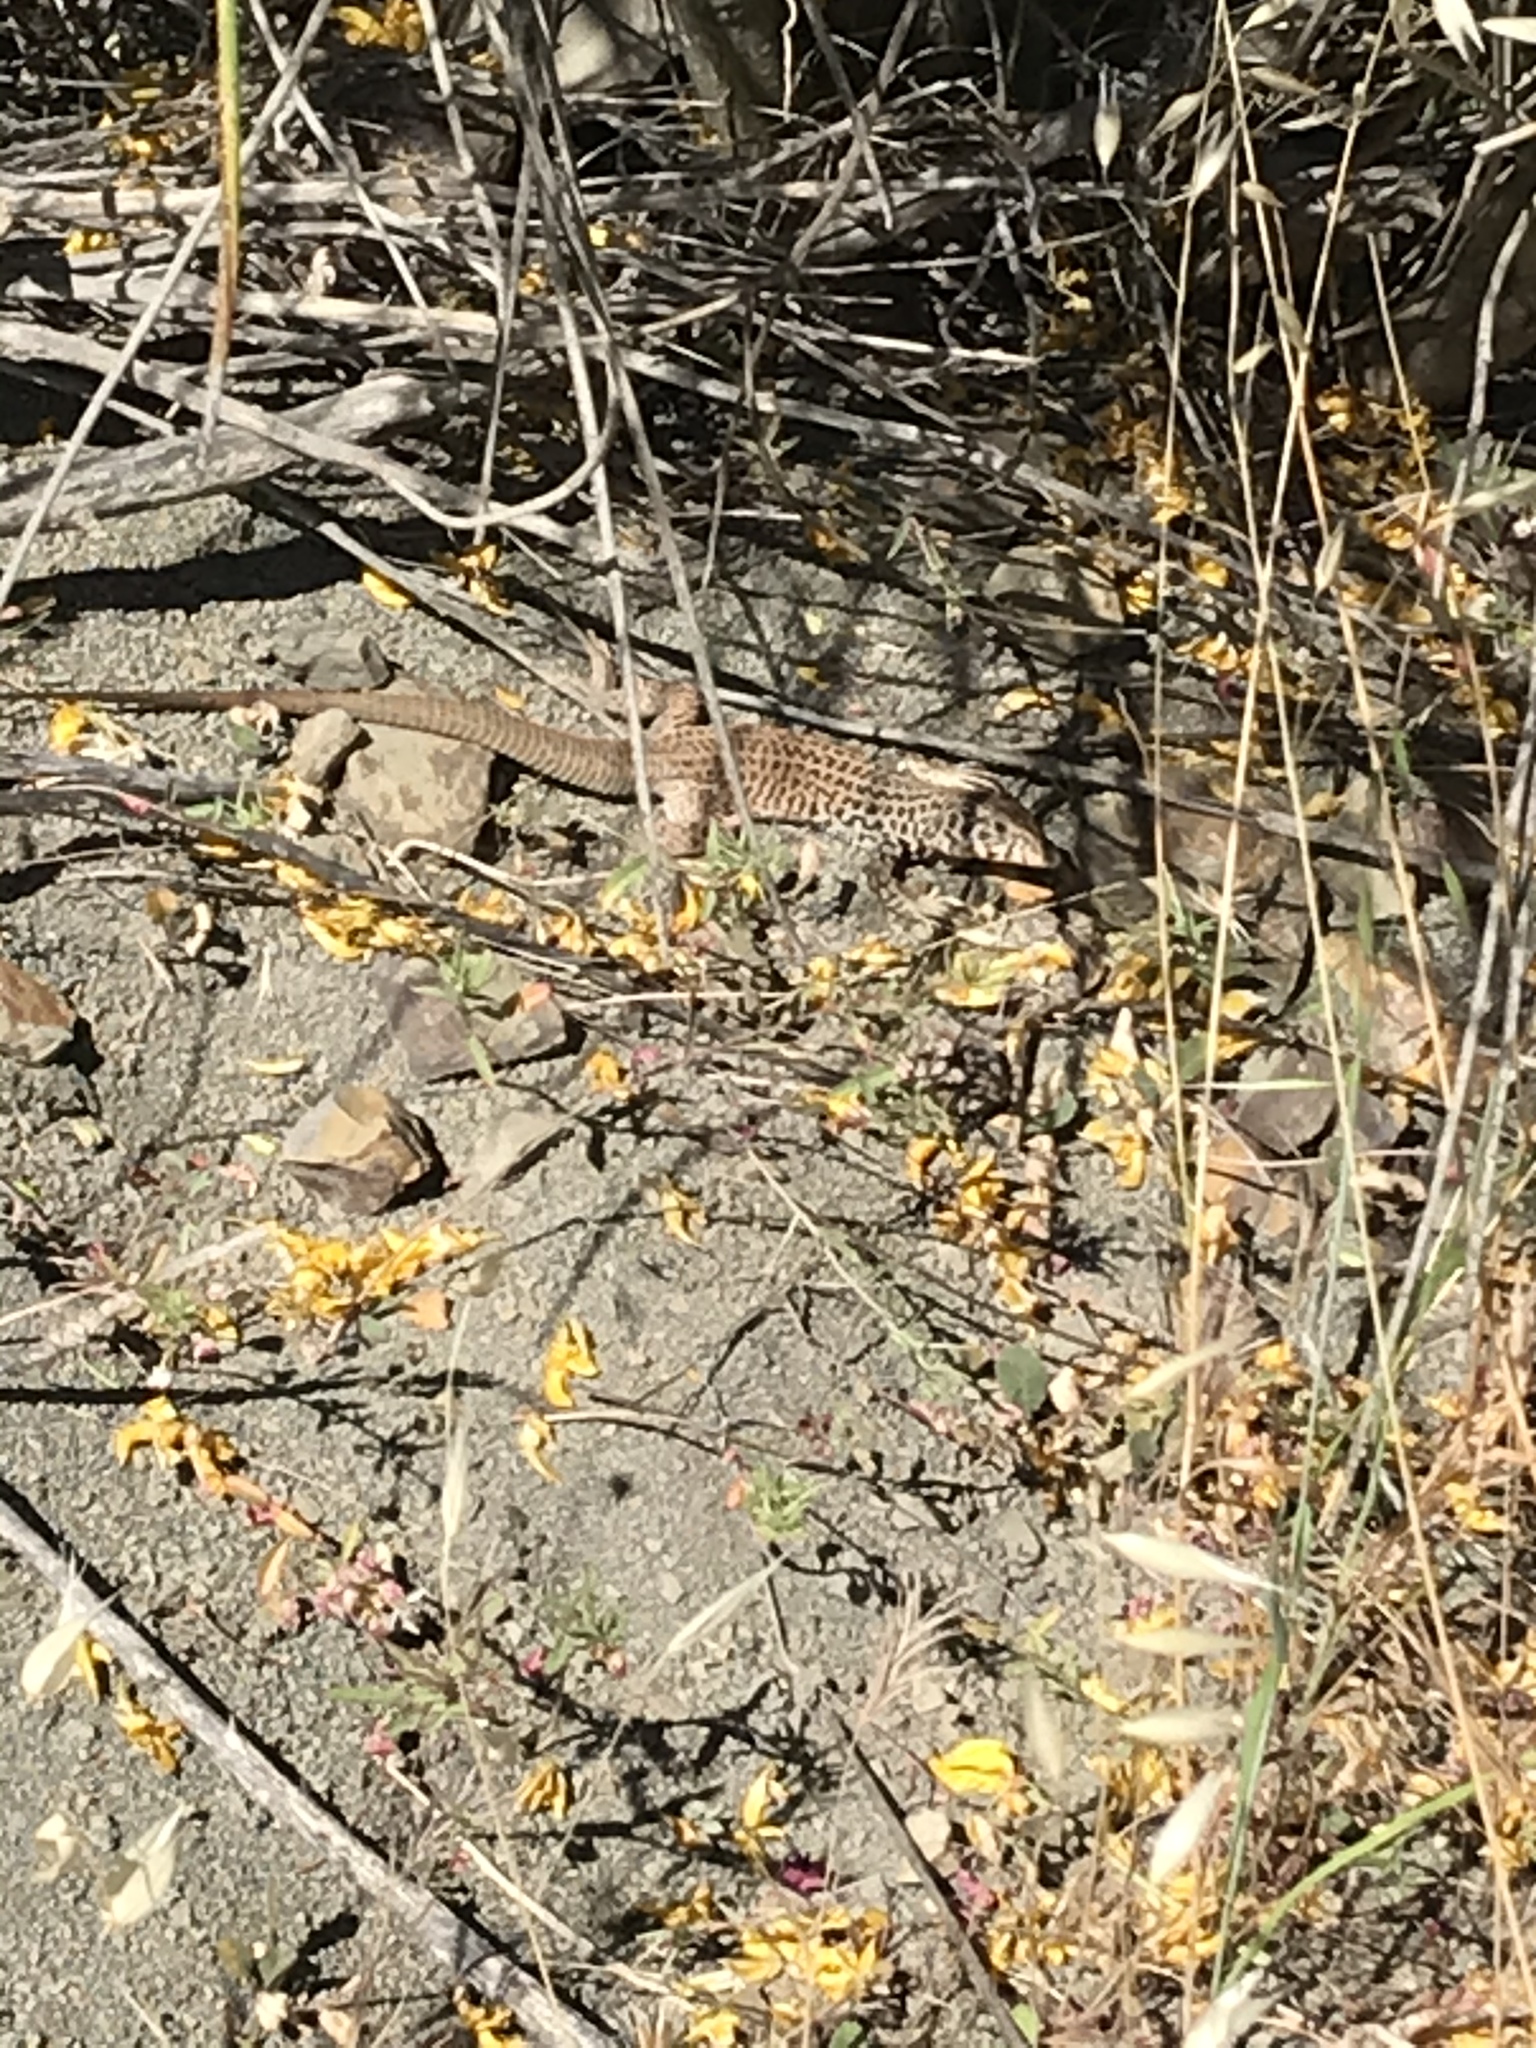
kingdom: Animalia
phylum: Chordata
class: Squamata
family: Teiidae
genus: Aspidoscelis
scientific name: Aspidoscelis tigris
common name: Tiger whiptail
